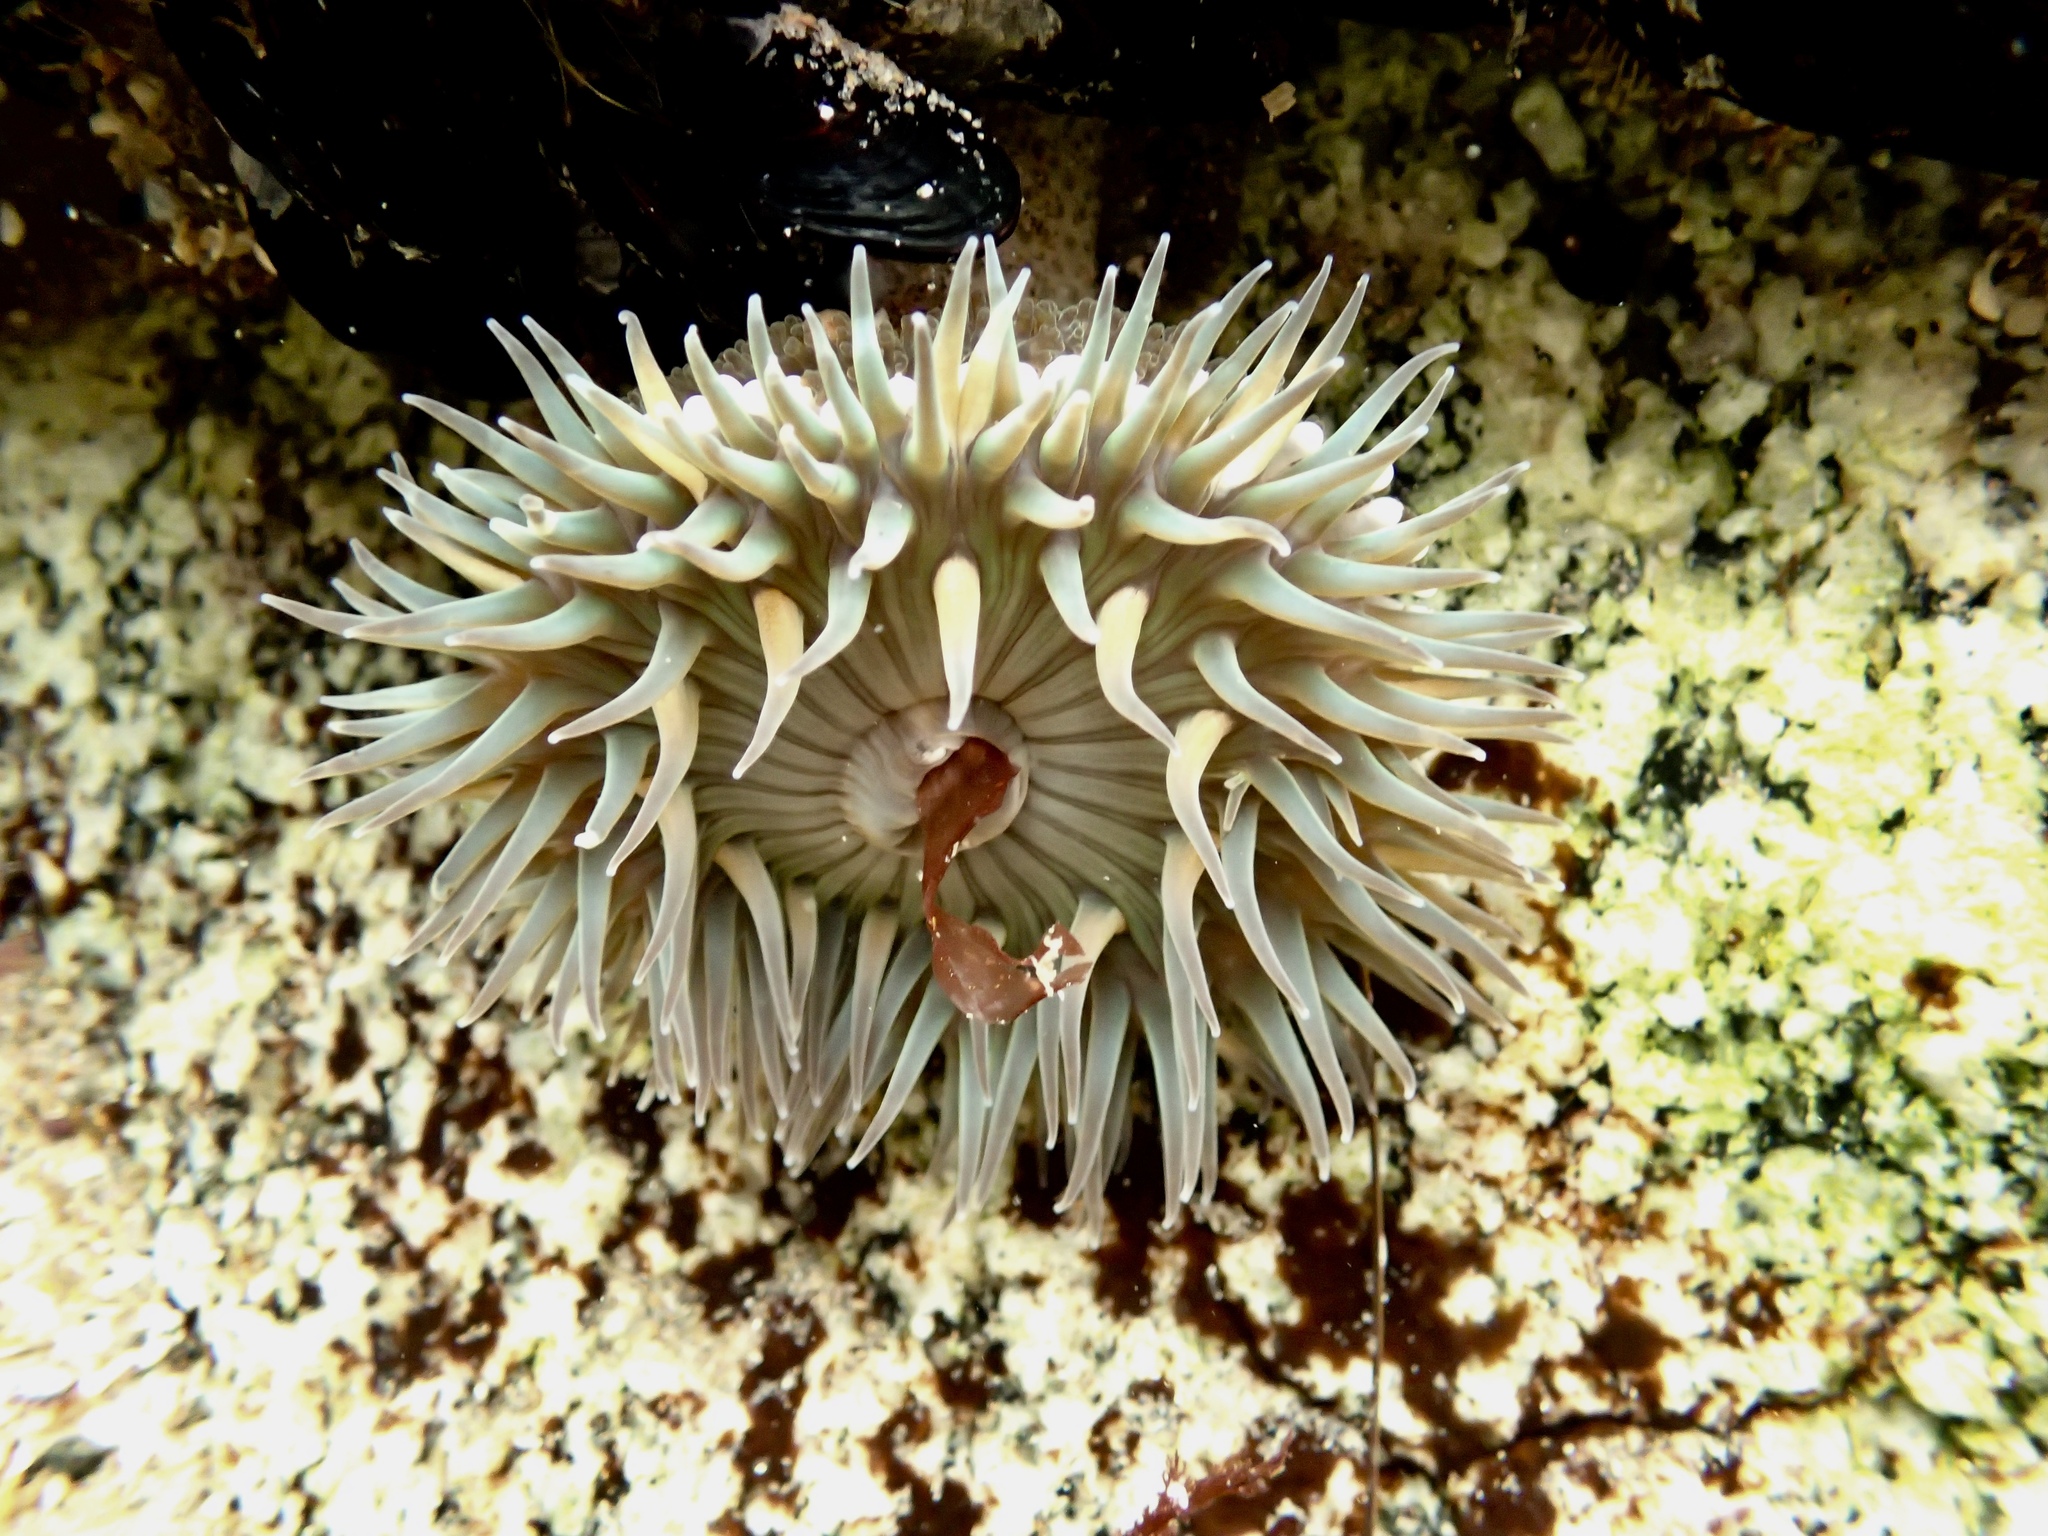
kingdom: Animalia
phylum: Cnidaria
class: Anthozoa
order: Actiniaria
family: Actiniidae
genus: Anthopleura
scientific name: Anthopleura sola
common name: Sun anemone
